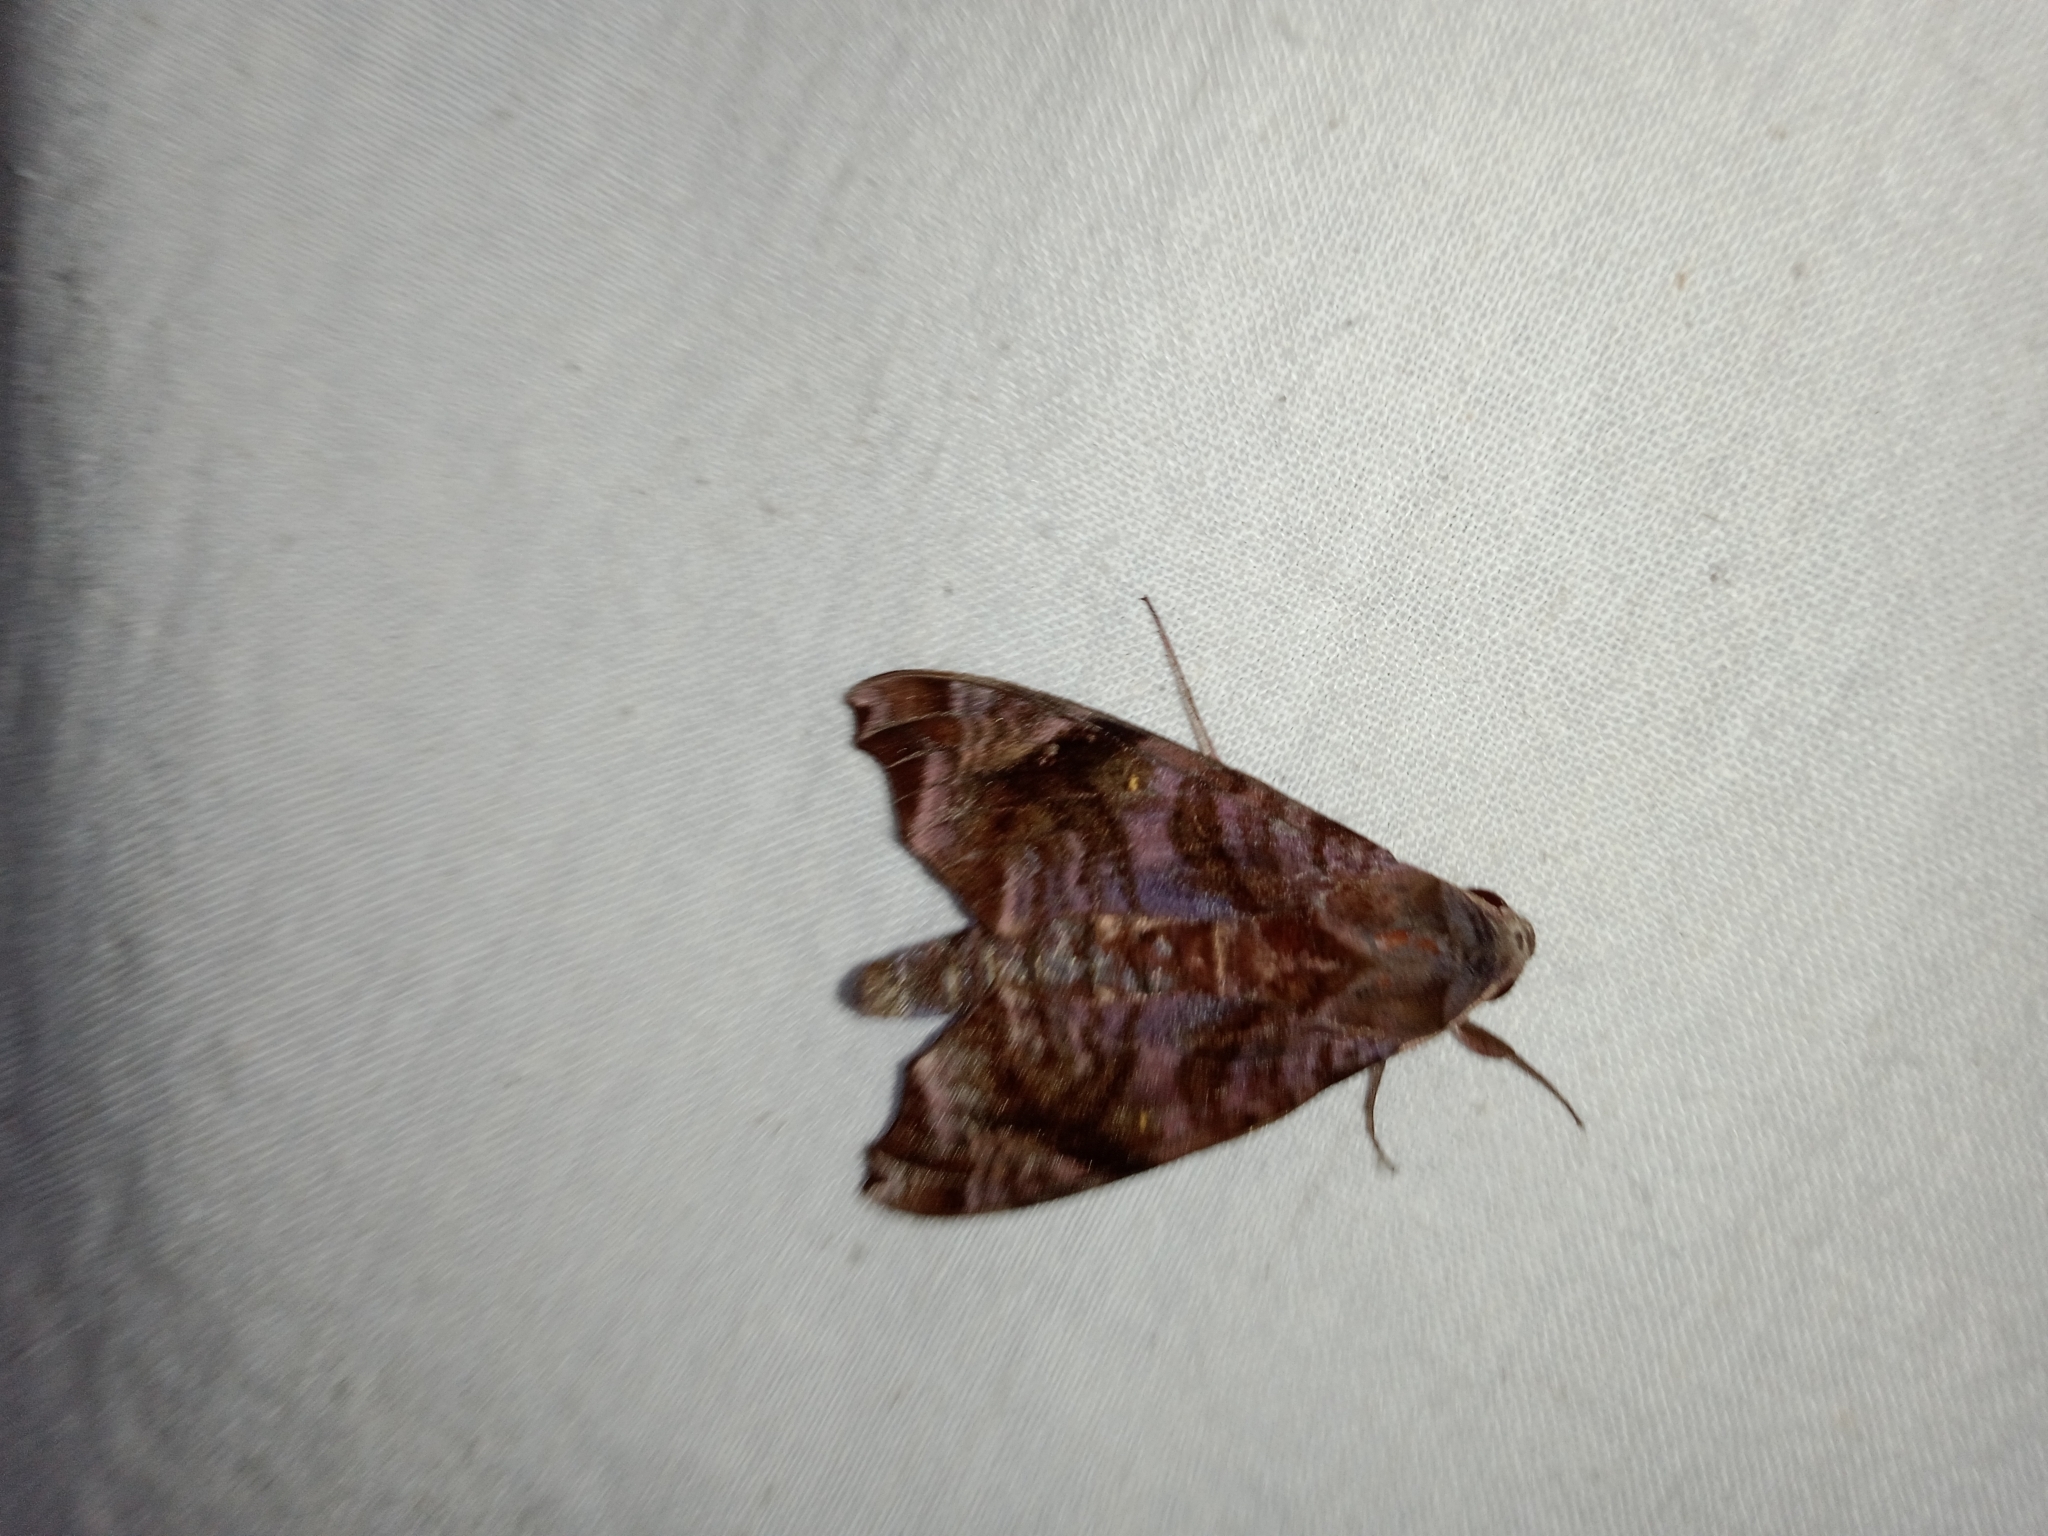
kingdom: Animalia
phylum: Arthropoda
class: Insecta
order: Lepidoptera
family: Sphingidae
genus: Acosmeryx
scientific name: Acosmeryx anceus
